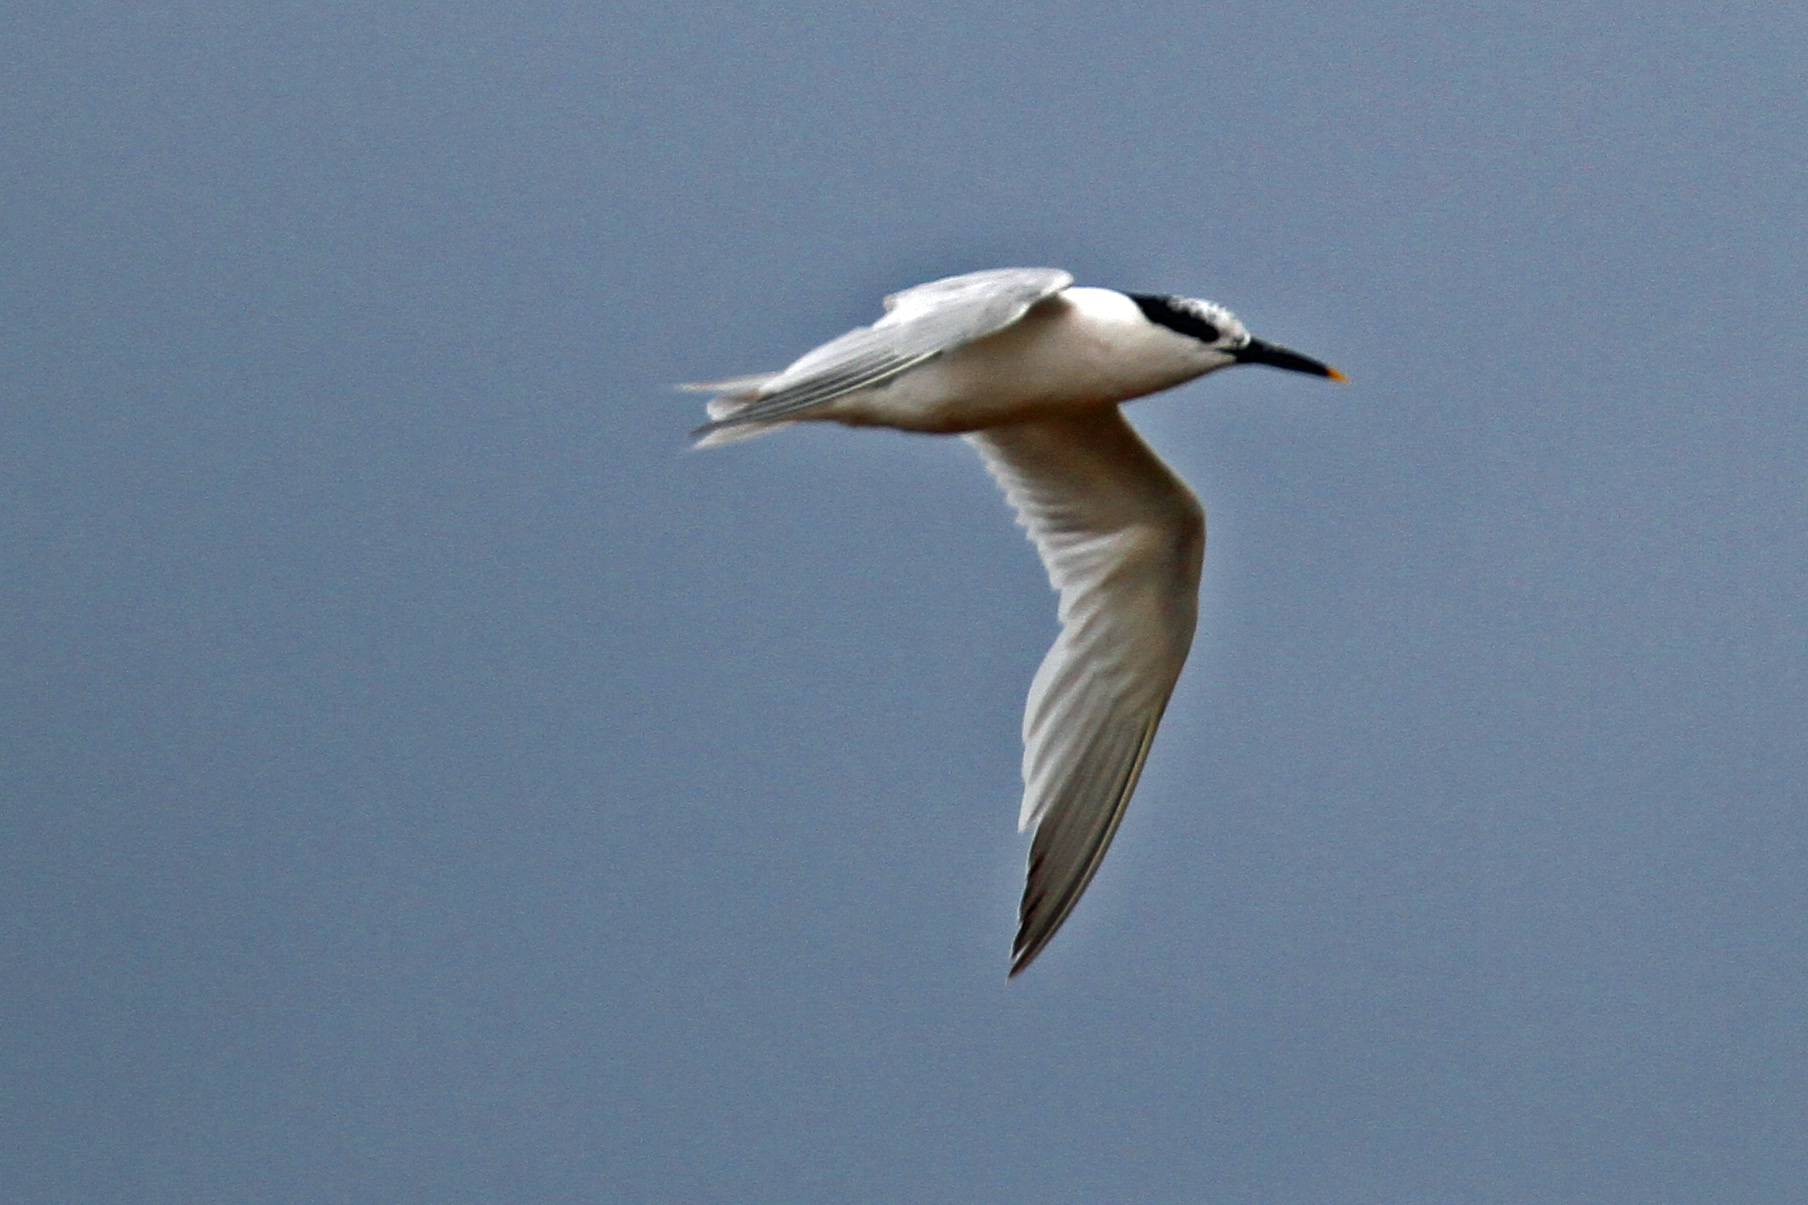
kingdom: Animalia
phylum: Chordata
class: Aves
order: Charadriiformes
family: Laridae
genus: Thalasseus
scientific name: Thalasseus sandvicensis
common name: Sandwich tern
